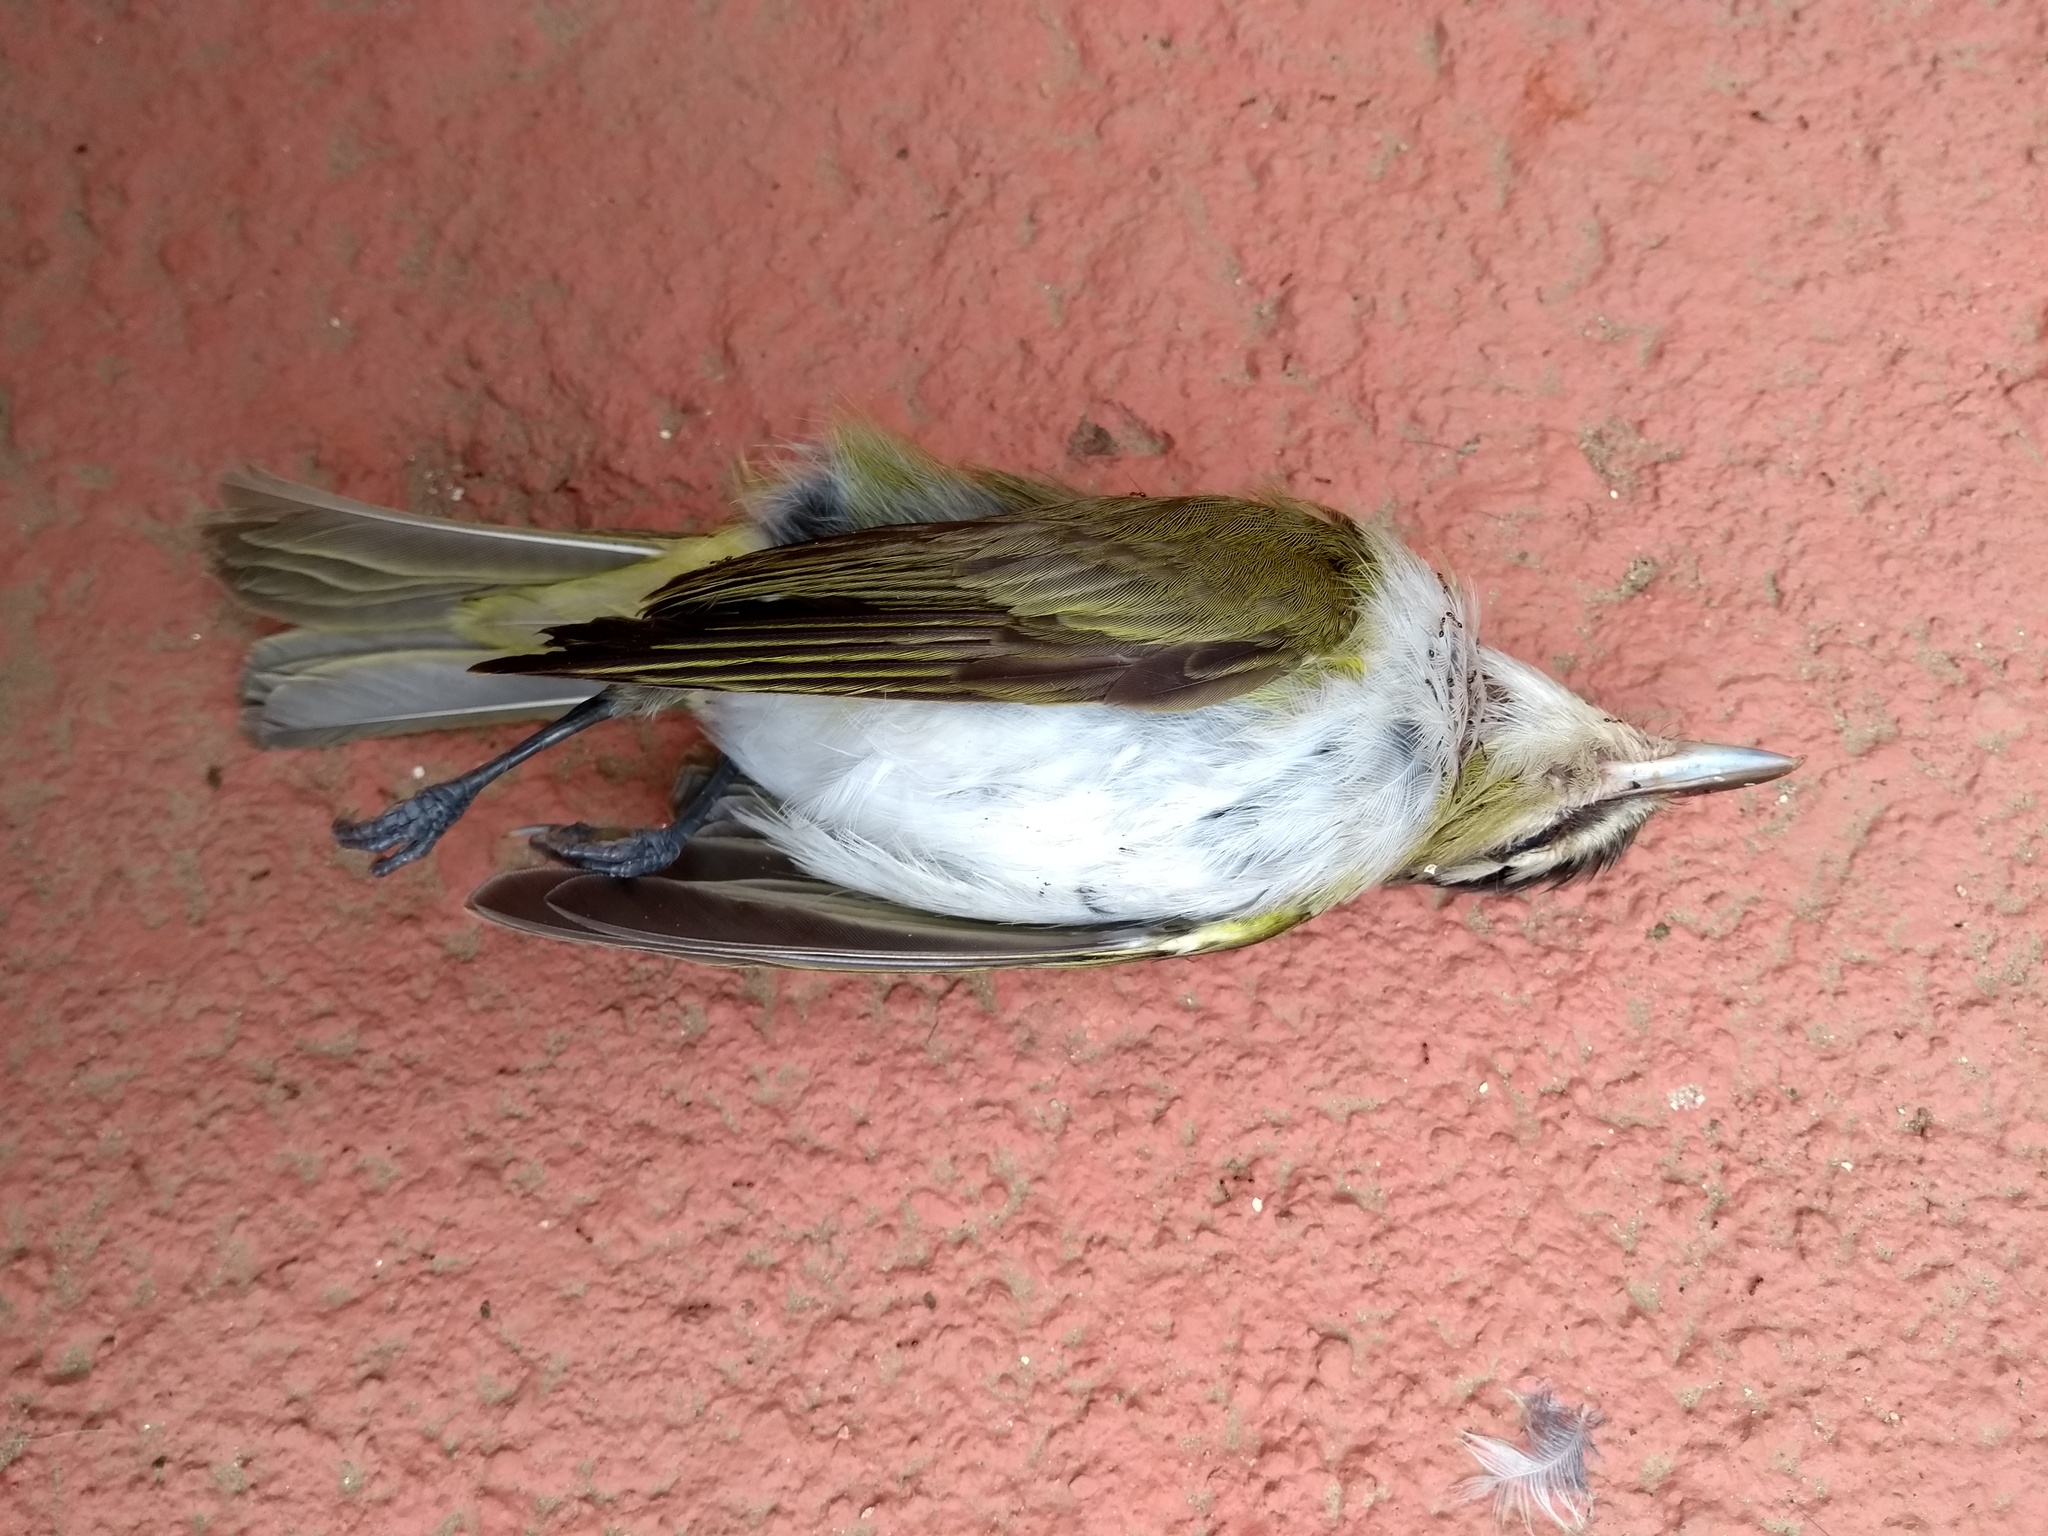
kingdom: Animalia
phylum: Chordata
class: Aves
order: Passeriformes
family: Vireonidae
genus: Vireo
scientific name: Vireo olivaceus
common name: Red-eyed vireo
